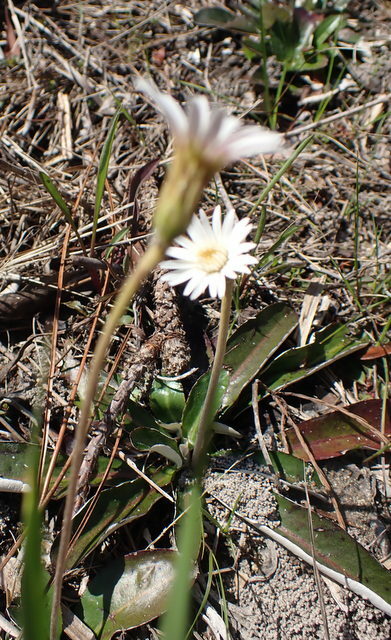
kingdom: Plantae
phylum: Tracheophyta
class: Magnoliopsida
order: Asterales
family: Asteraceae
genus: Chaptalia
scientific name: Chaptalia tomentosa
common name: Woolly sunbonnet
